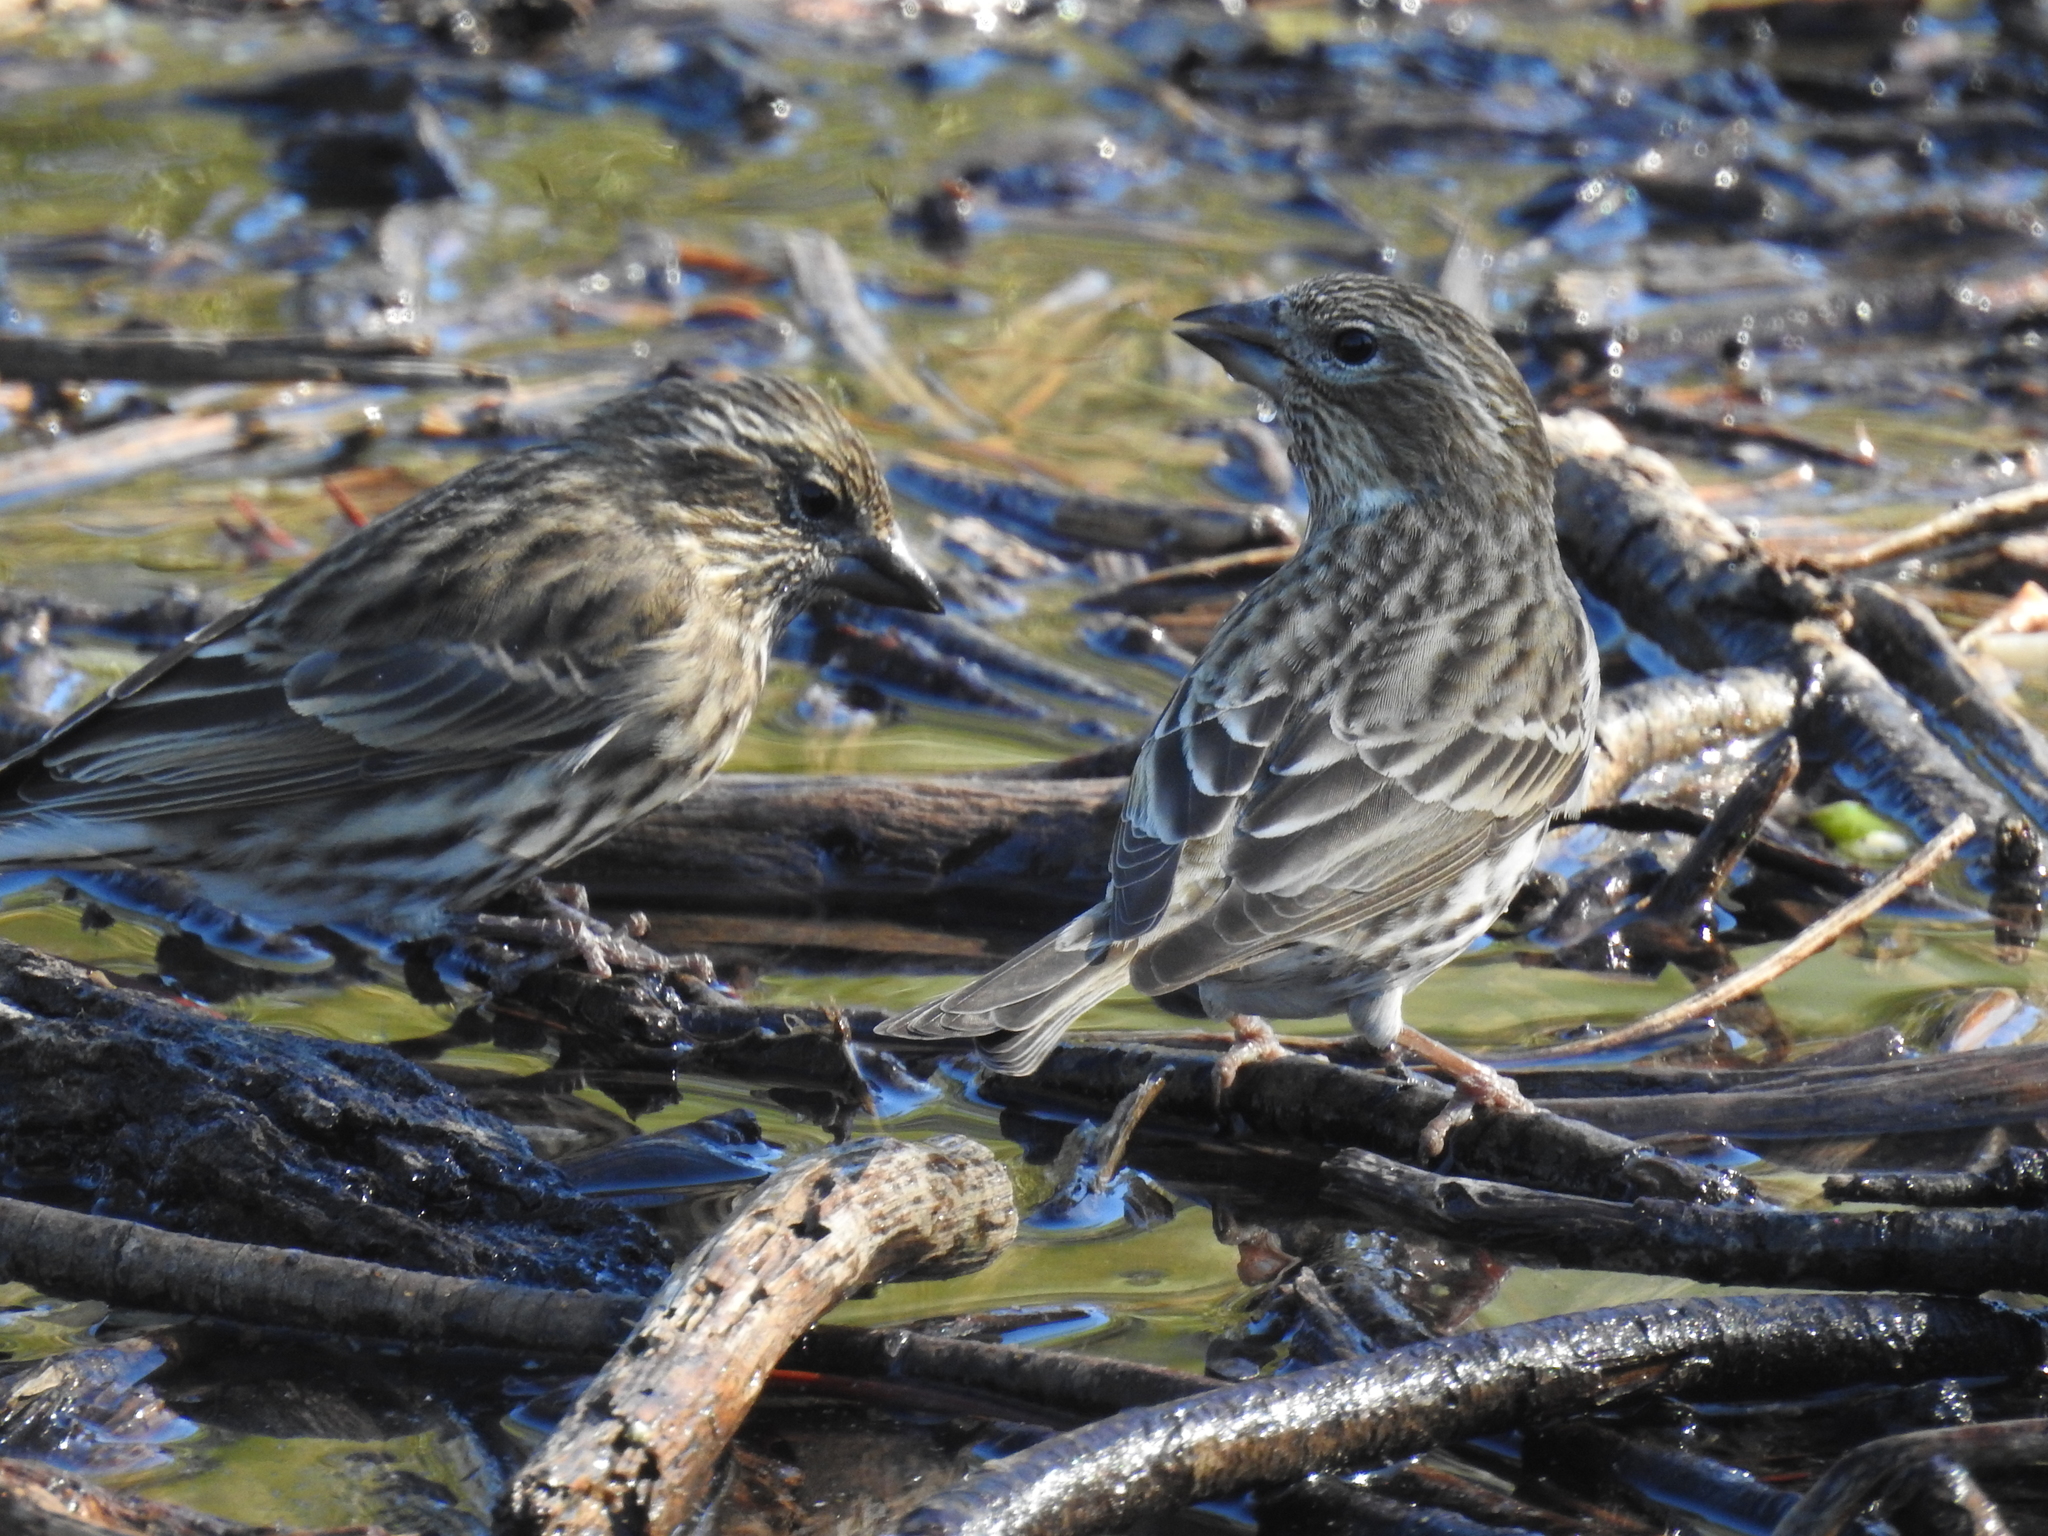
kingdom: Animalia
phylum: Chordata
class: Aves
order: Passeriformes
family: Fringillidae
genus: Haemorhous
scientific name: Haemorhous cassinii
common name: Cassin's finch
